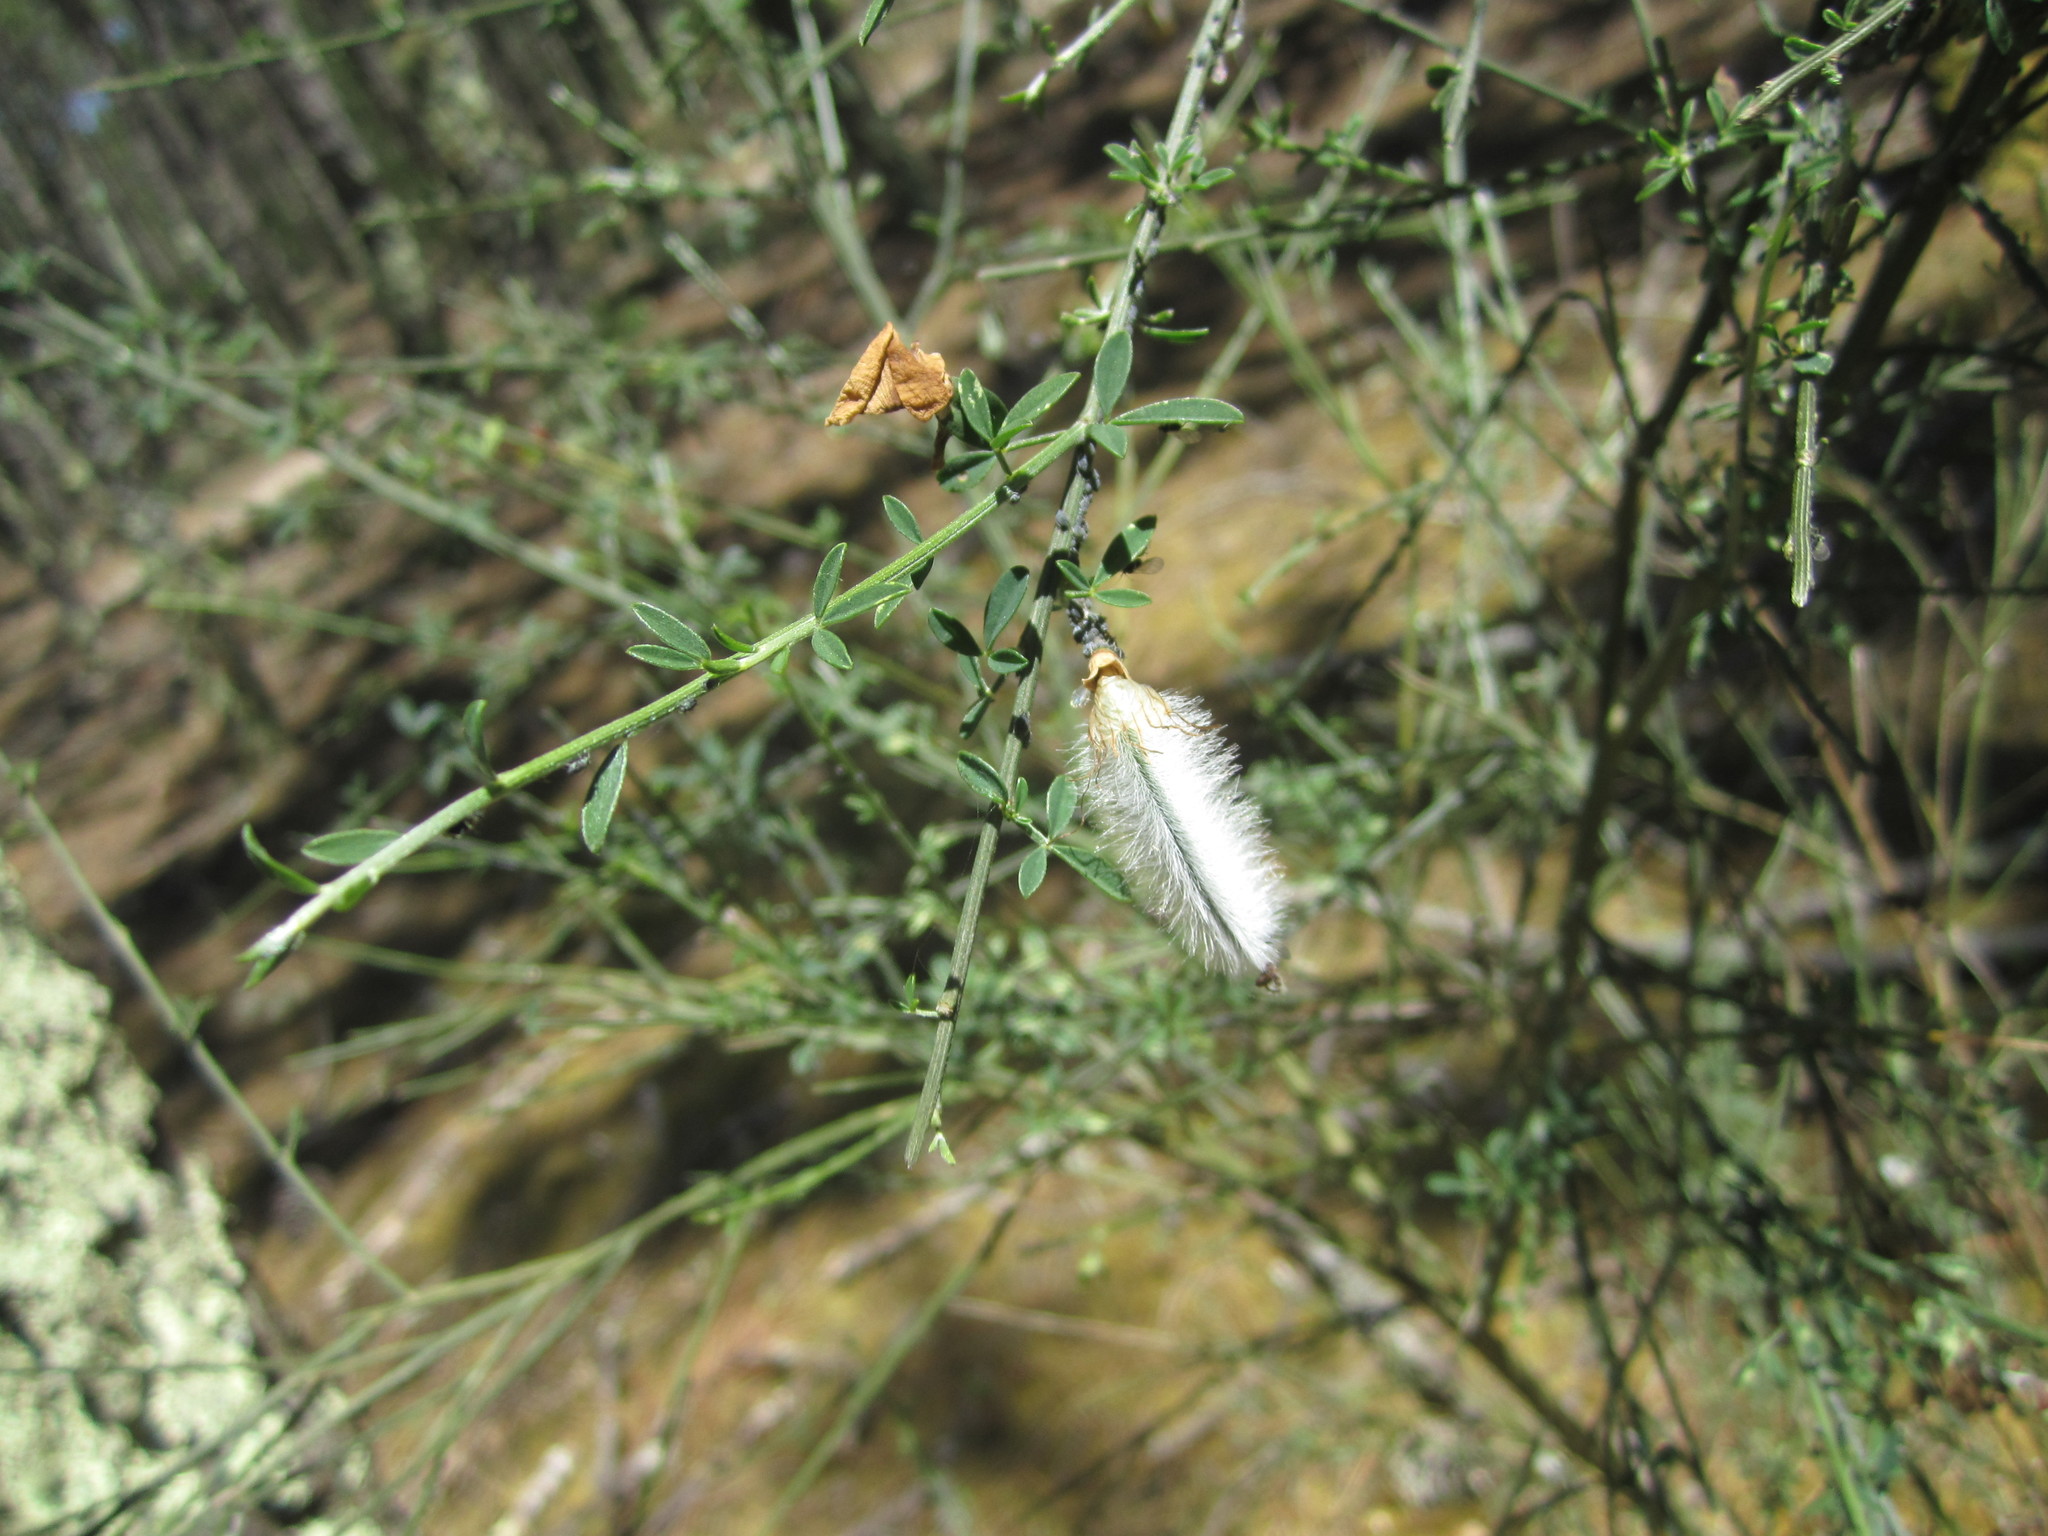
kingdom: Plantae
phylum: Tracheophyta
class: Magnoliopsida
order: Fabales
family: Fabaceae
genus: Cytisus
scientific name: Cytisus striatus
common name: Hairy-fruited broom
